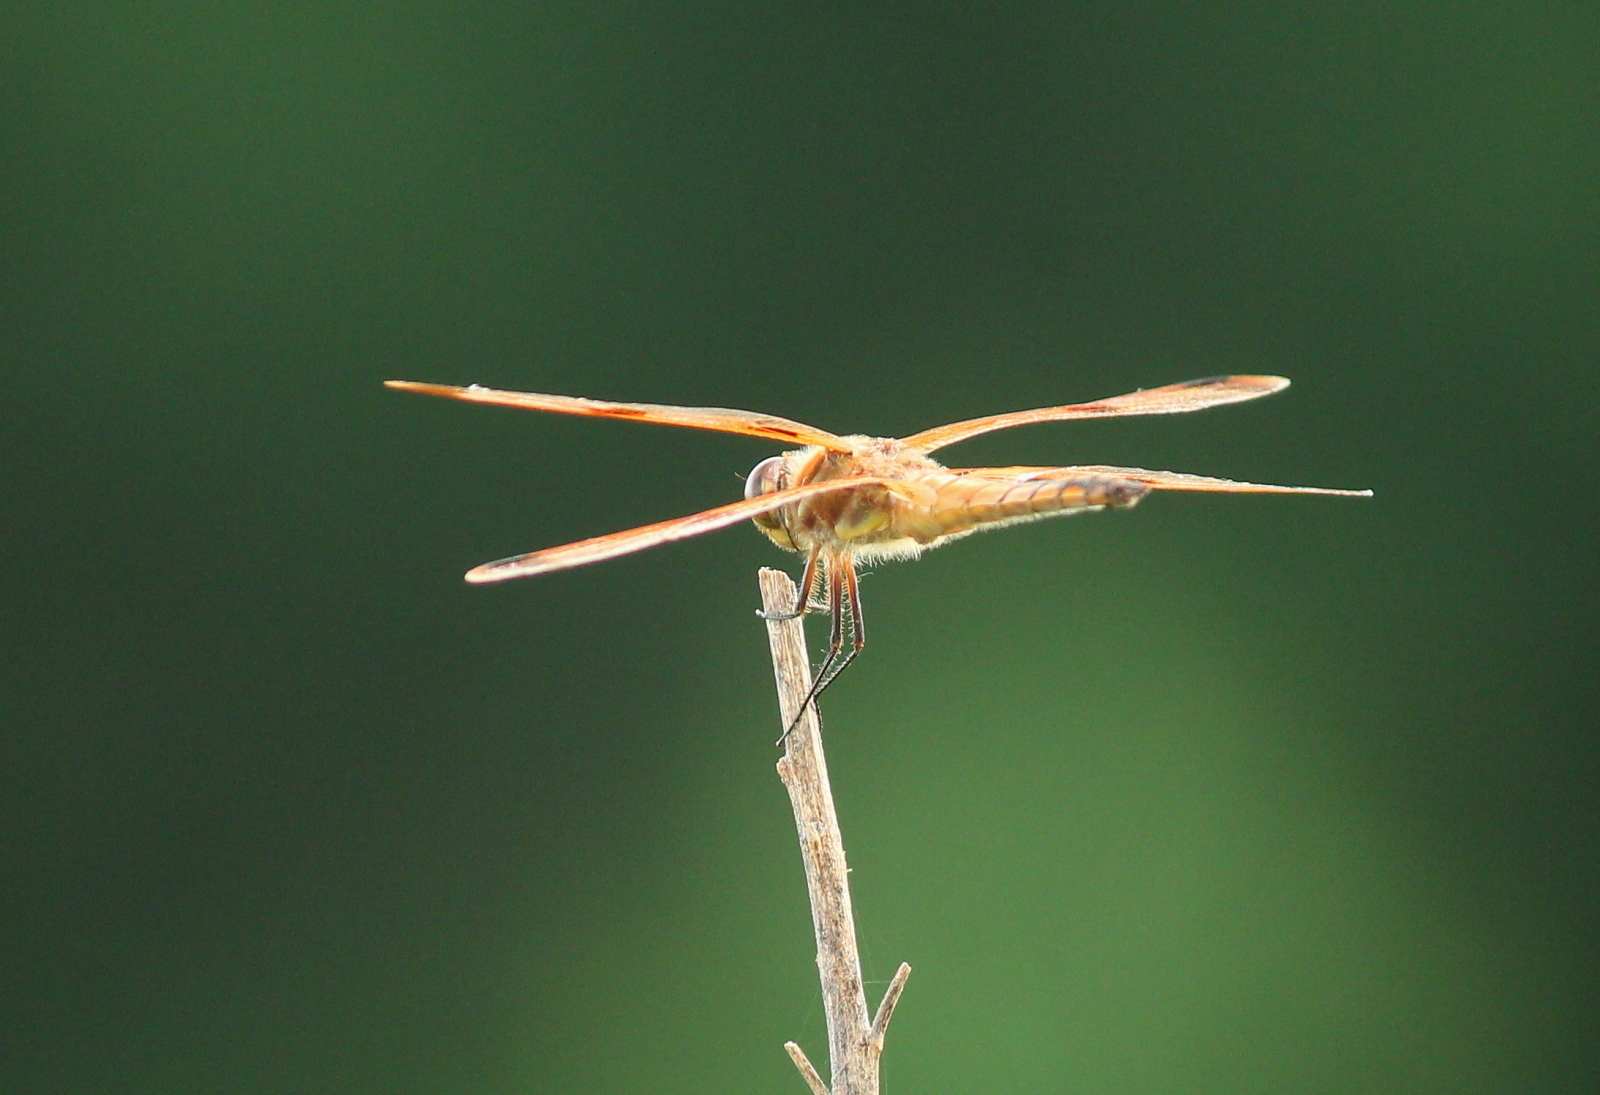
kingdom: Animalia
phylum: Arthropoda
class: Insecta
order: Odonata
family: Libellulidae
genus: Libellula
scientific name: Libellula semifasciata
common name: Painted skimmer
